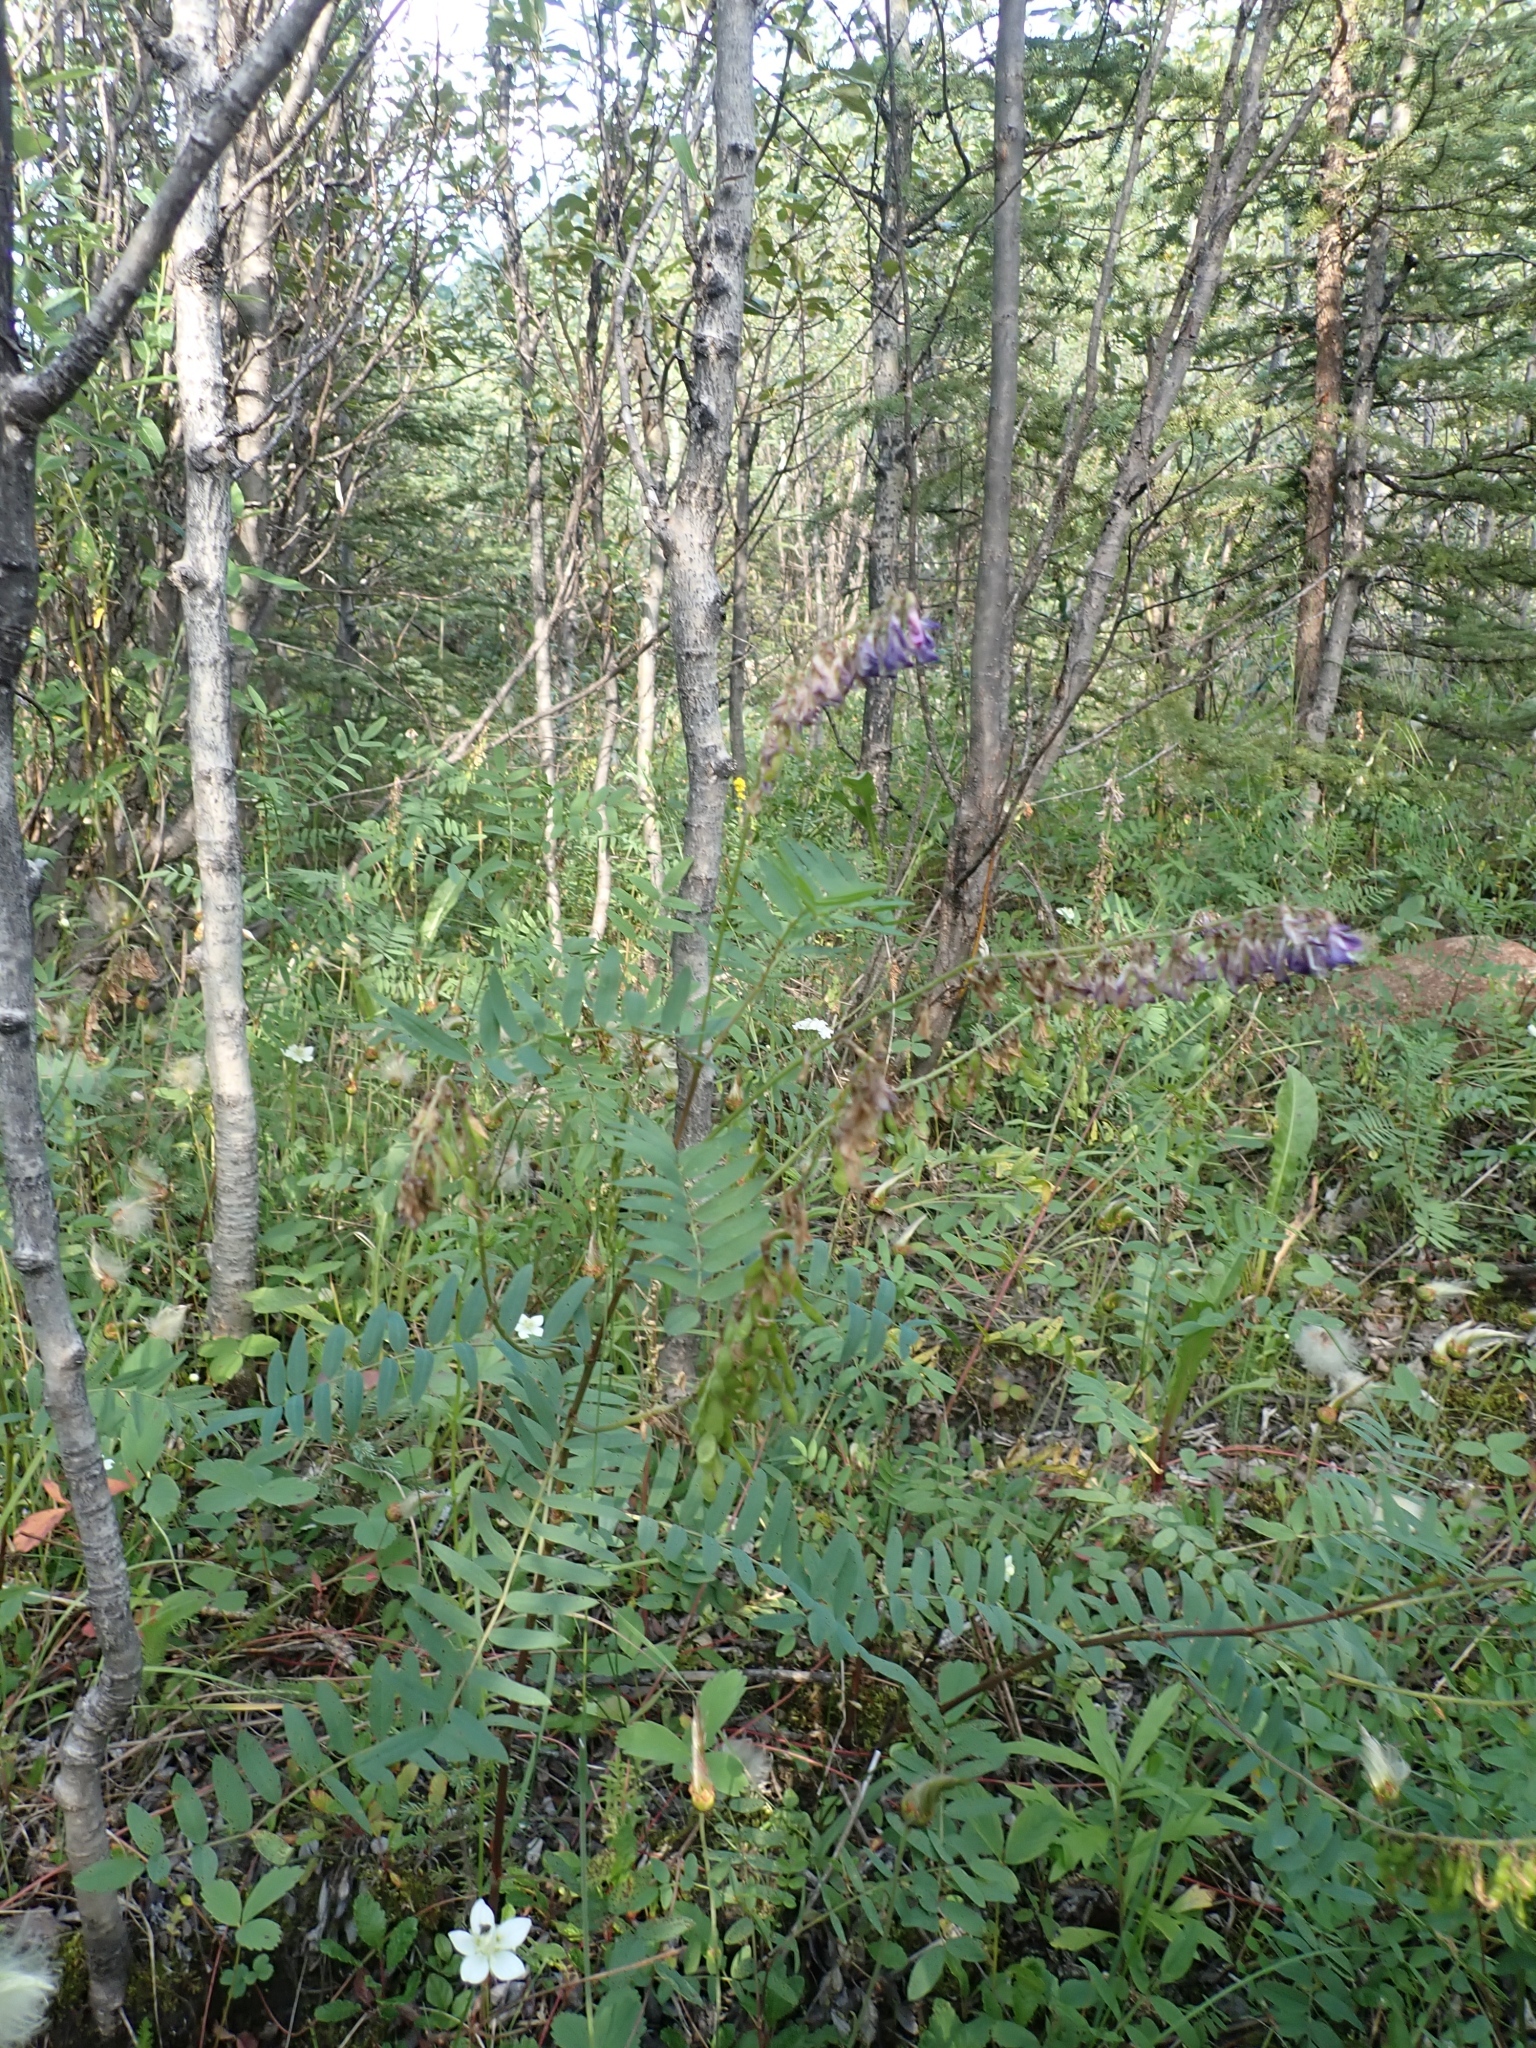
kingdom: Plantae
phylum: Tracheophyta
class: Magnoliopsida
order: Fabales
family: Fabaceae
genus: Hedysarum
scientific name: Hedysarum alpinum
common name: Alpine sweet-vetch
